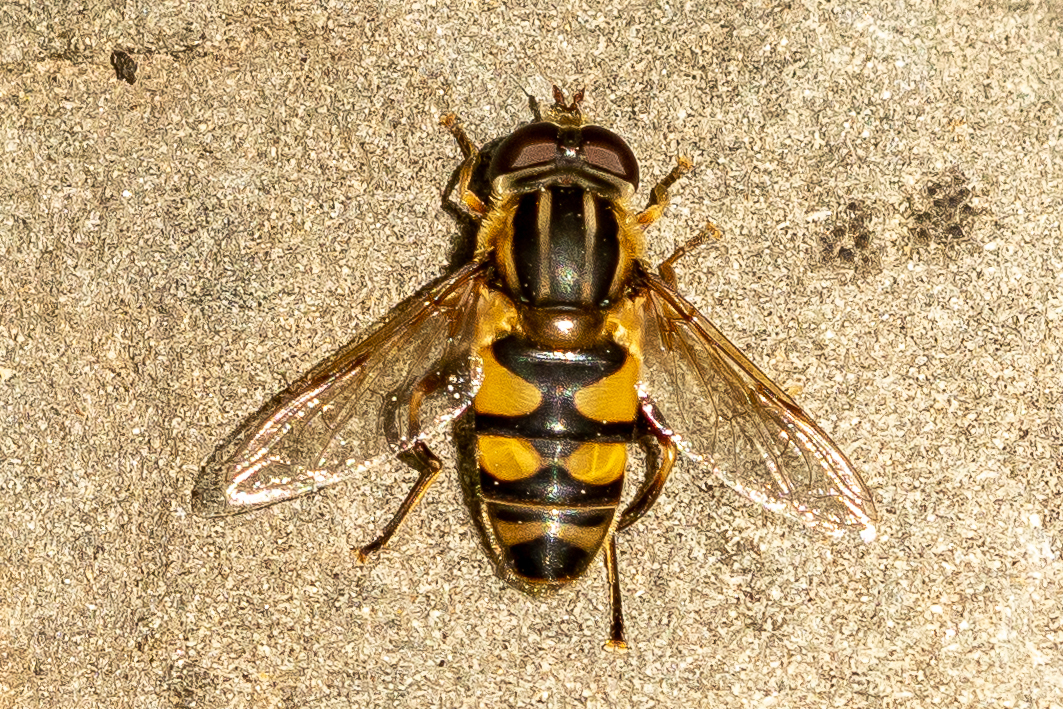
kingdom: Animalia
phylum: Arthropoda
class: Insecta
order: Diptera
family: Syrphidae
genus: Helophilus
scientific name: Helophilus fasciatus
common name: Narrow-headed marsh fly
